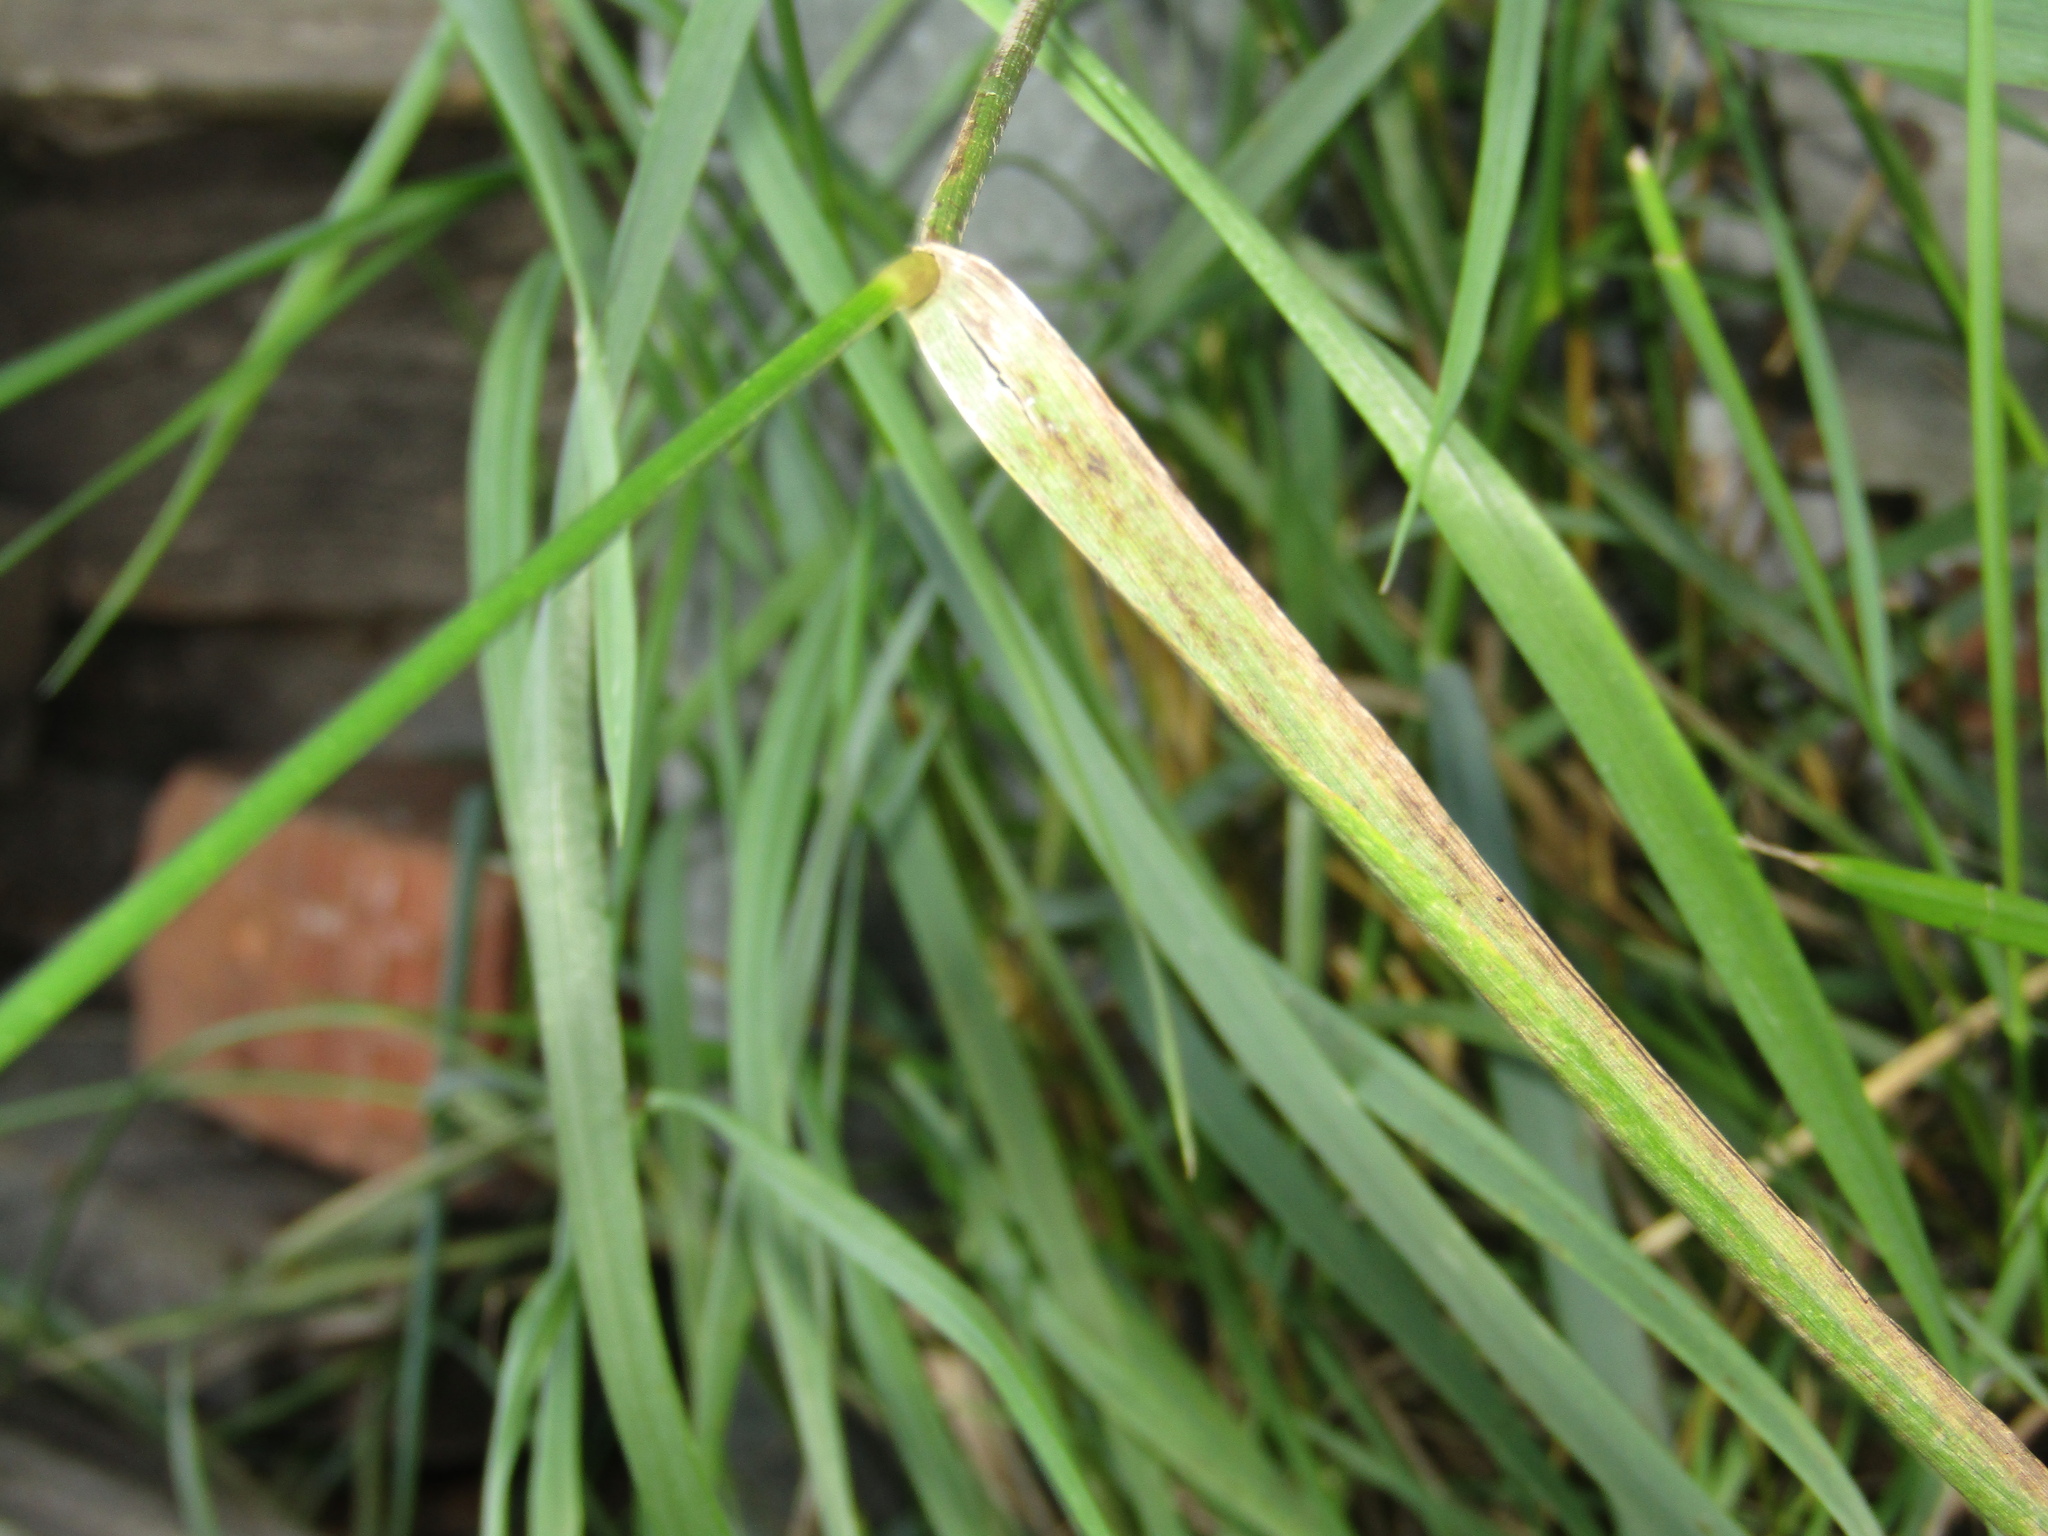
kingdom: Plantae
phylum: Tracheophyta
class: Liliopsida
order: Poales
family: Poaceae
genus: Elymus
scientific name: Elymus repens
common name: Quackgrass
